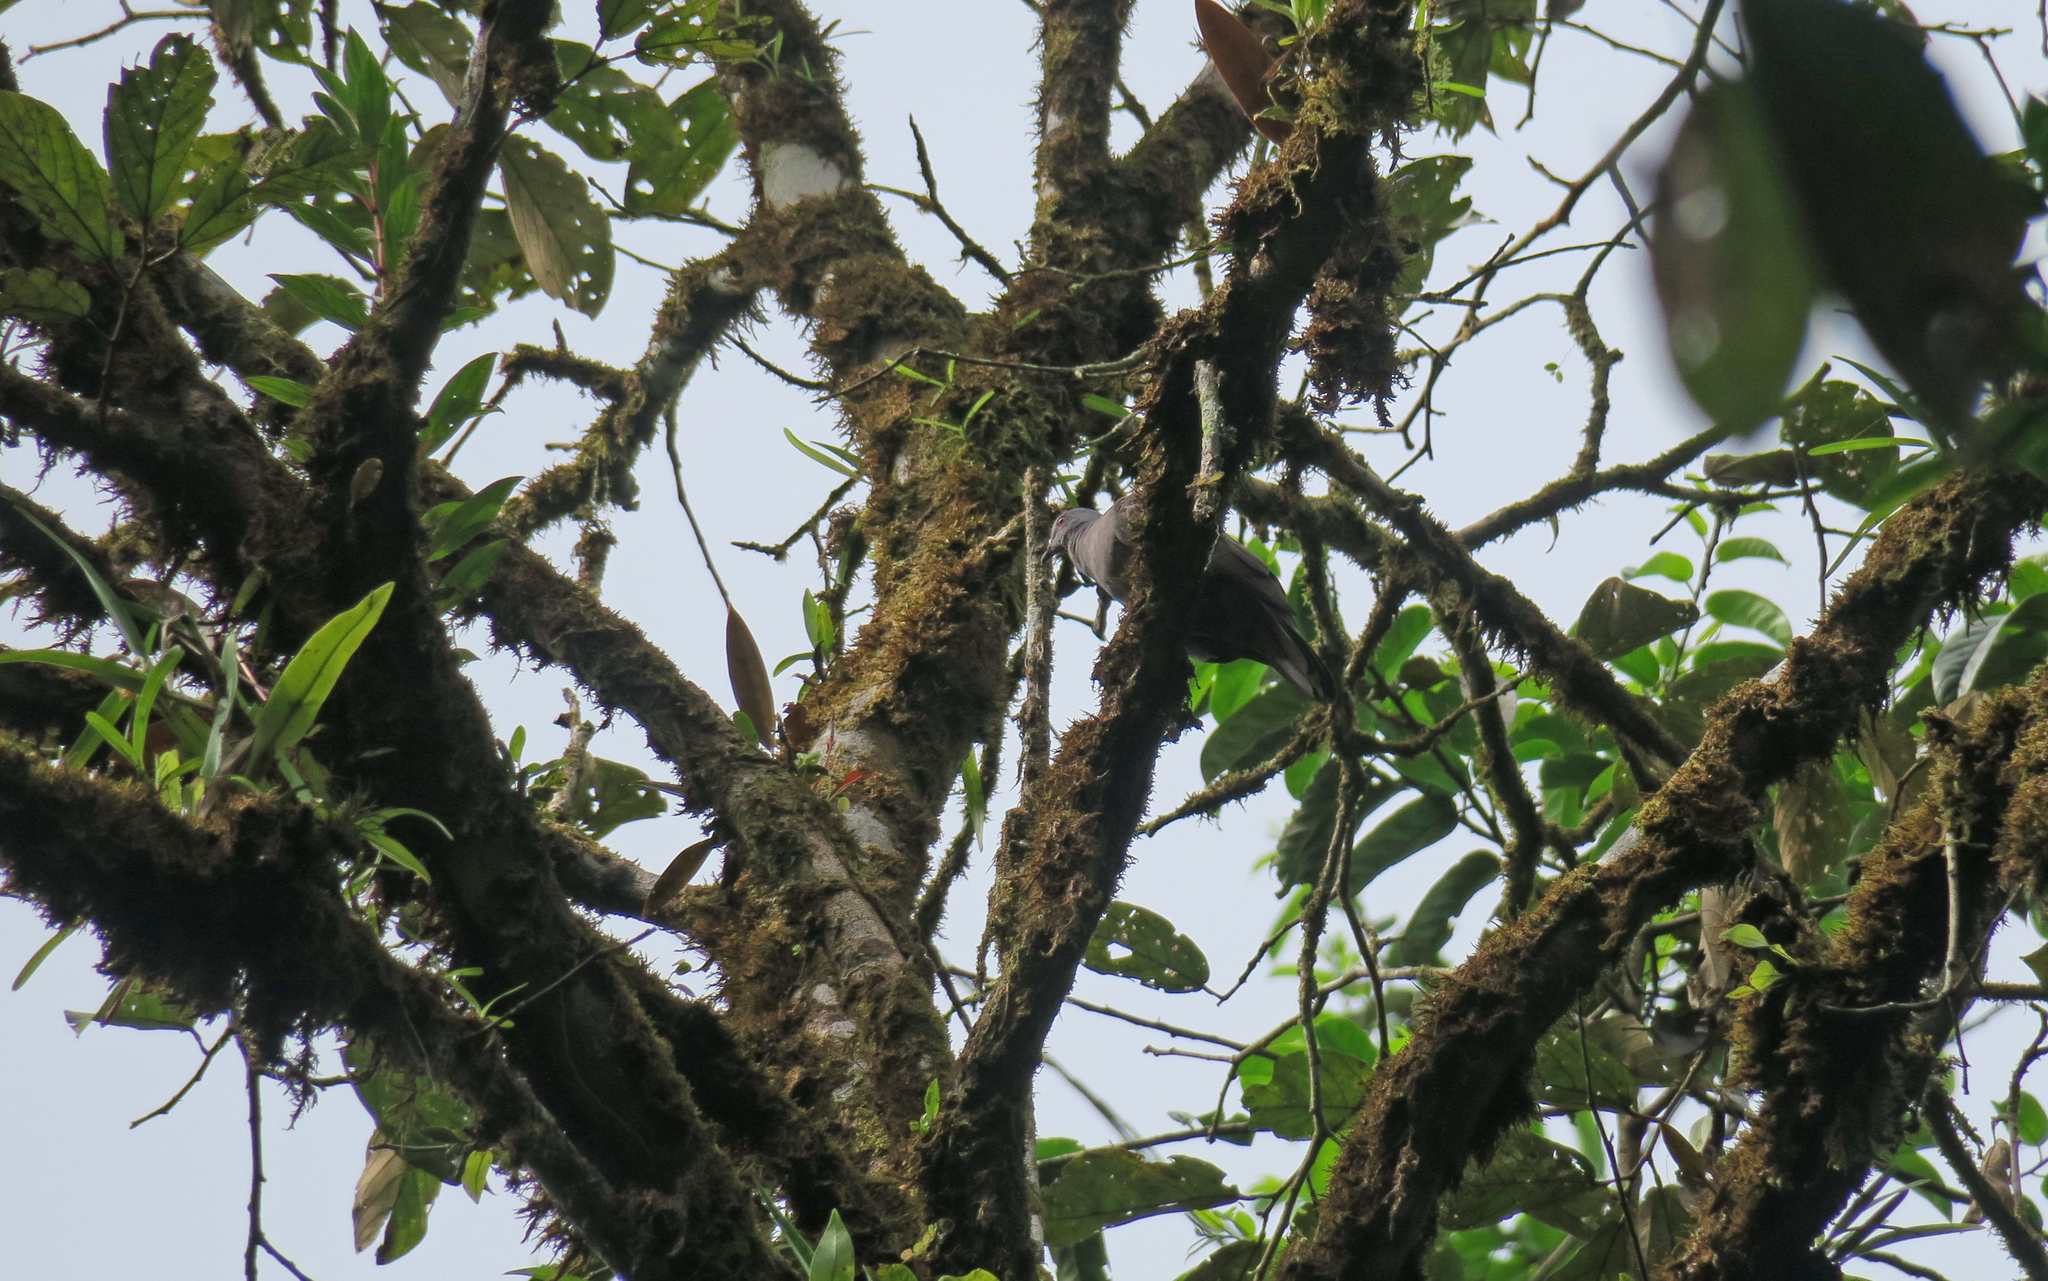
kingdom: Animalia
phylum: Chordata
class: Aves
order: Columbiformes
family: Columbidae
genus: Patagioenas
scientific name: Patagioenas goodsoni
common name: Dusky pigeon
